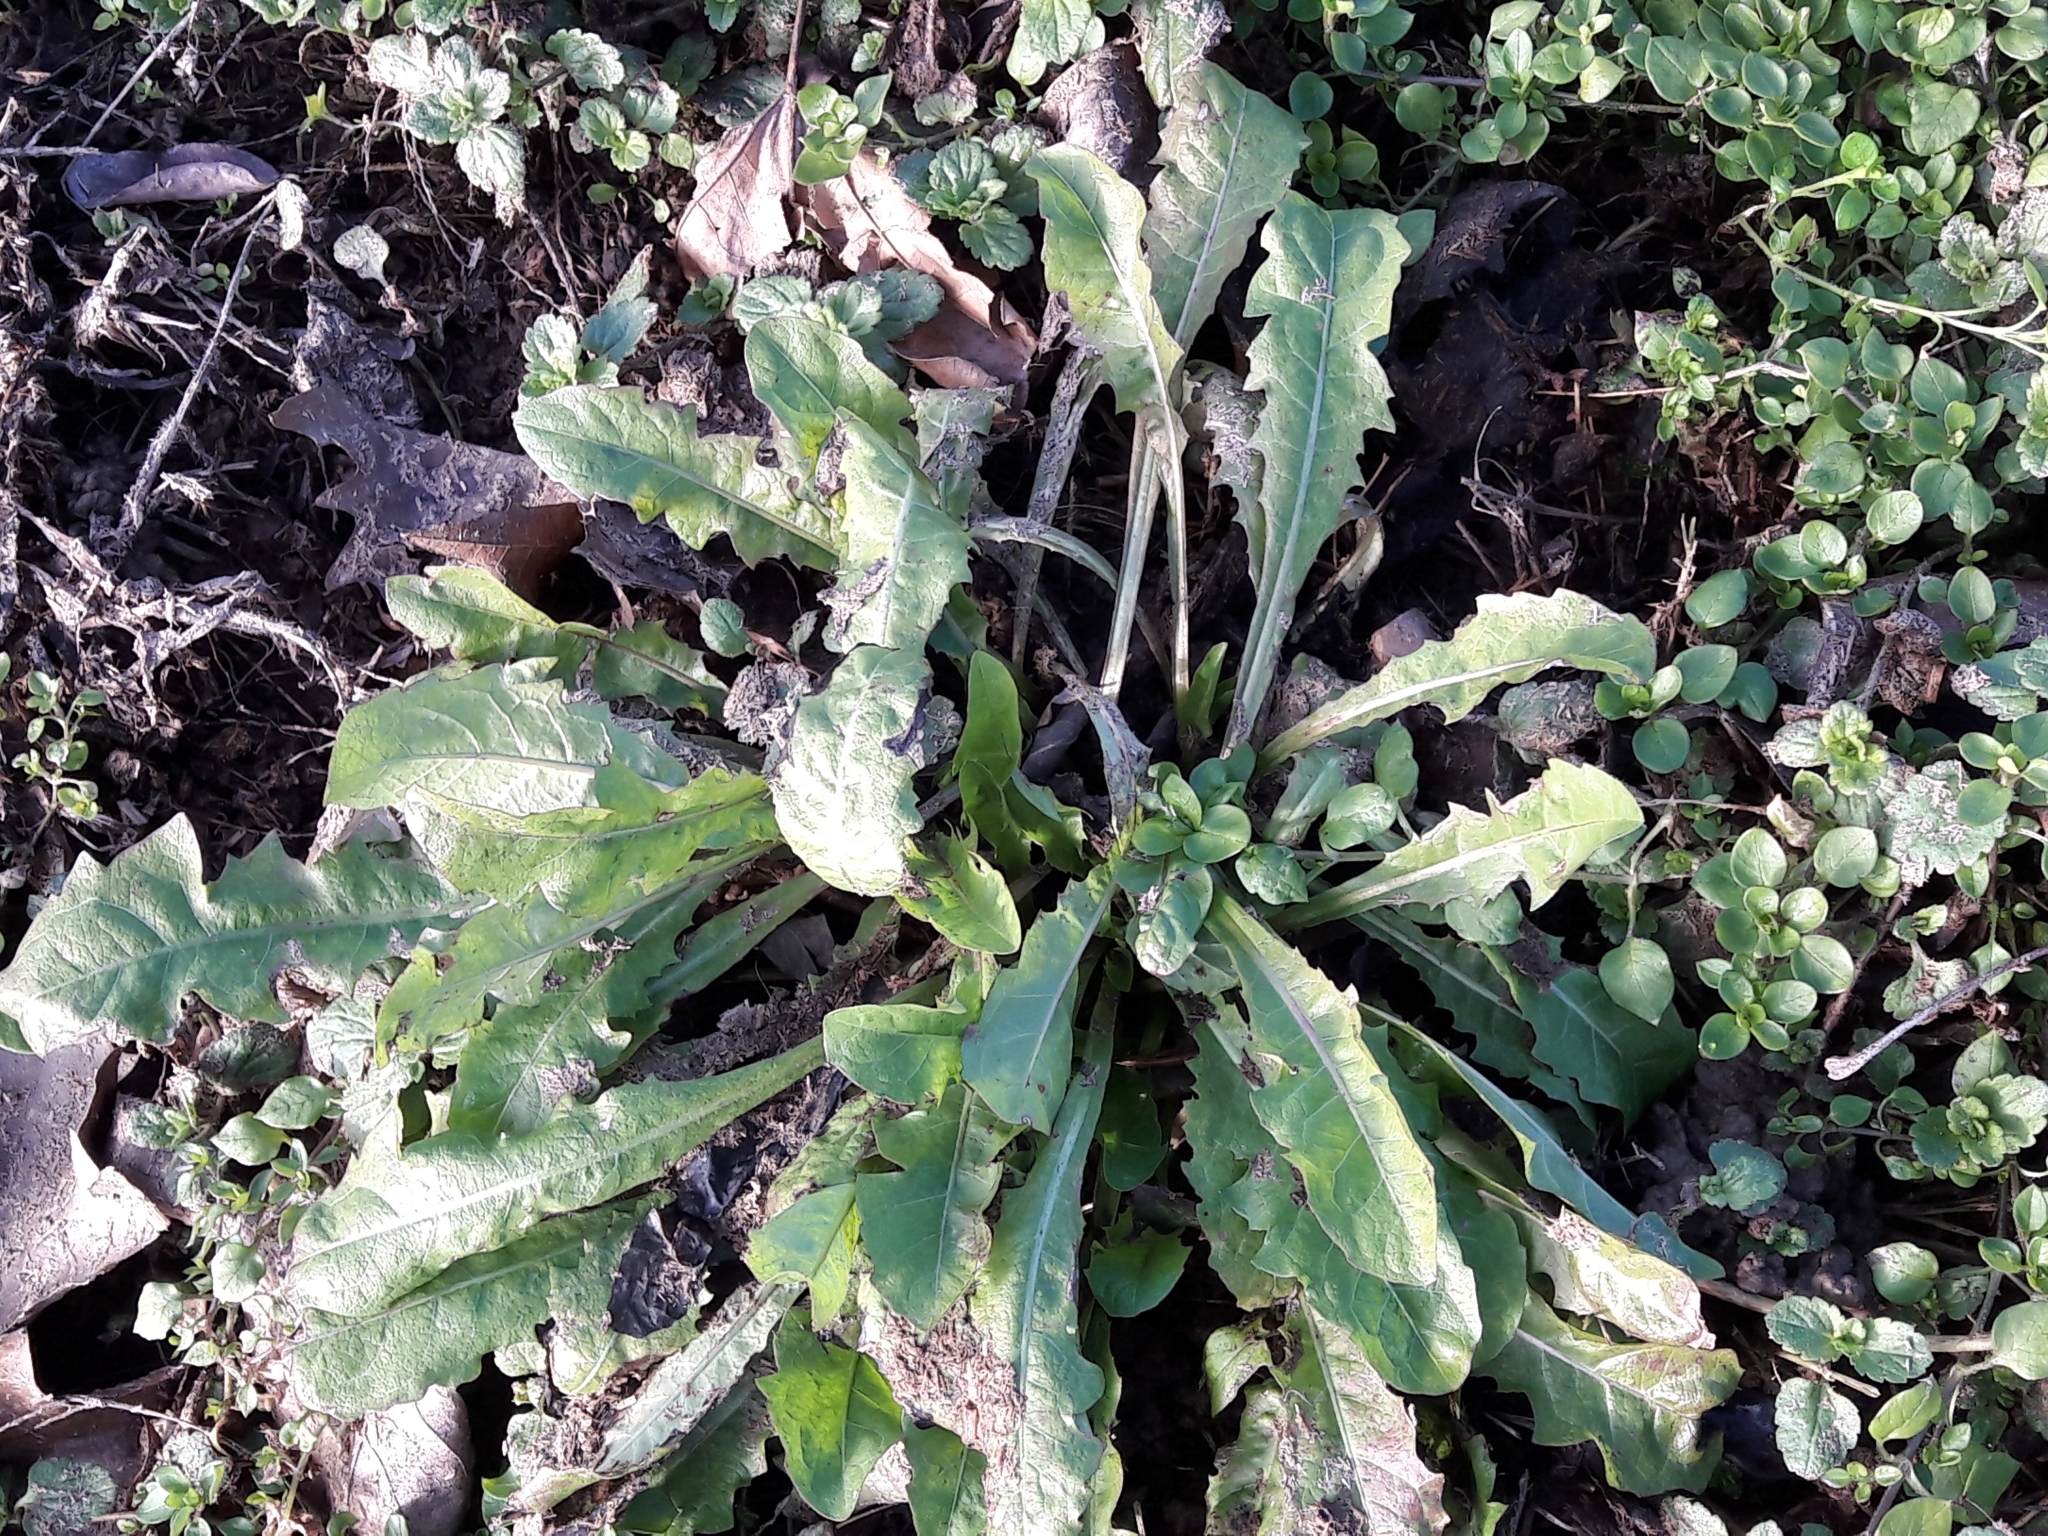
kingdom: Plantae
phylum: Tracheophyta
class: Magnoliopsida
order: Asterales
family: Asteraceae
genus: Taraxacum
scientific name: Taraxacum officinale
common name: Common dandelion
